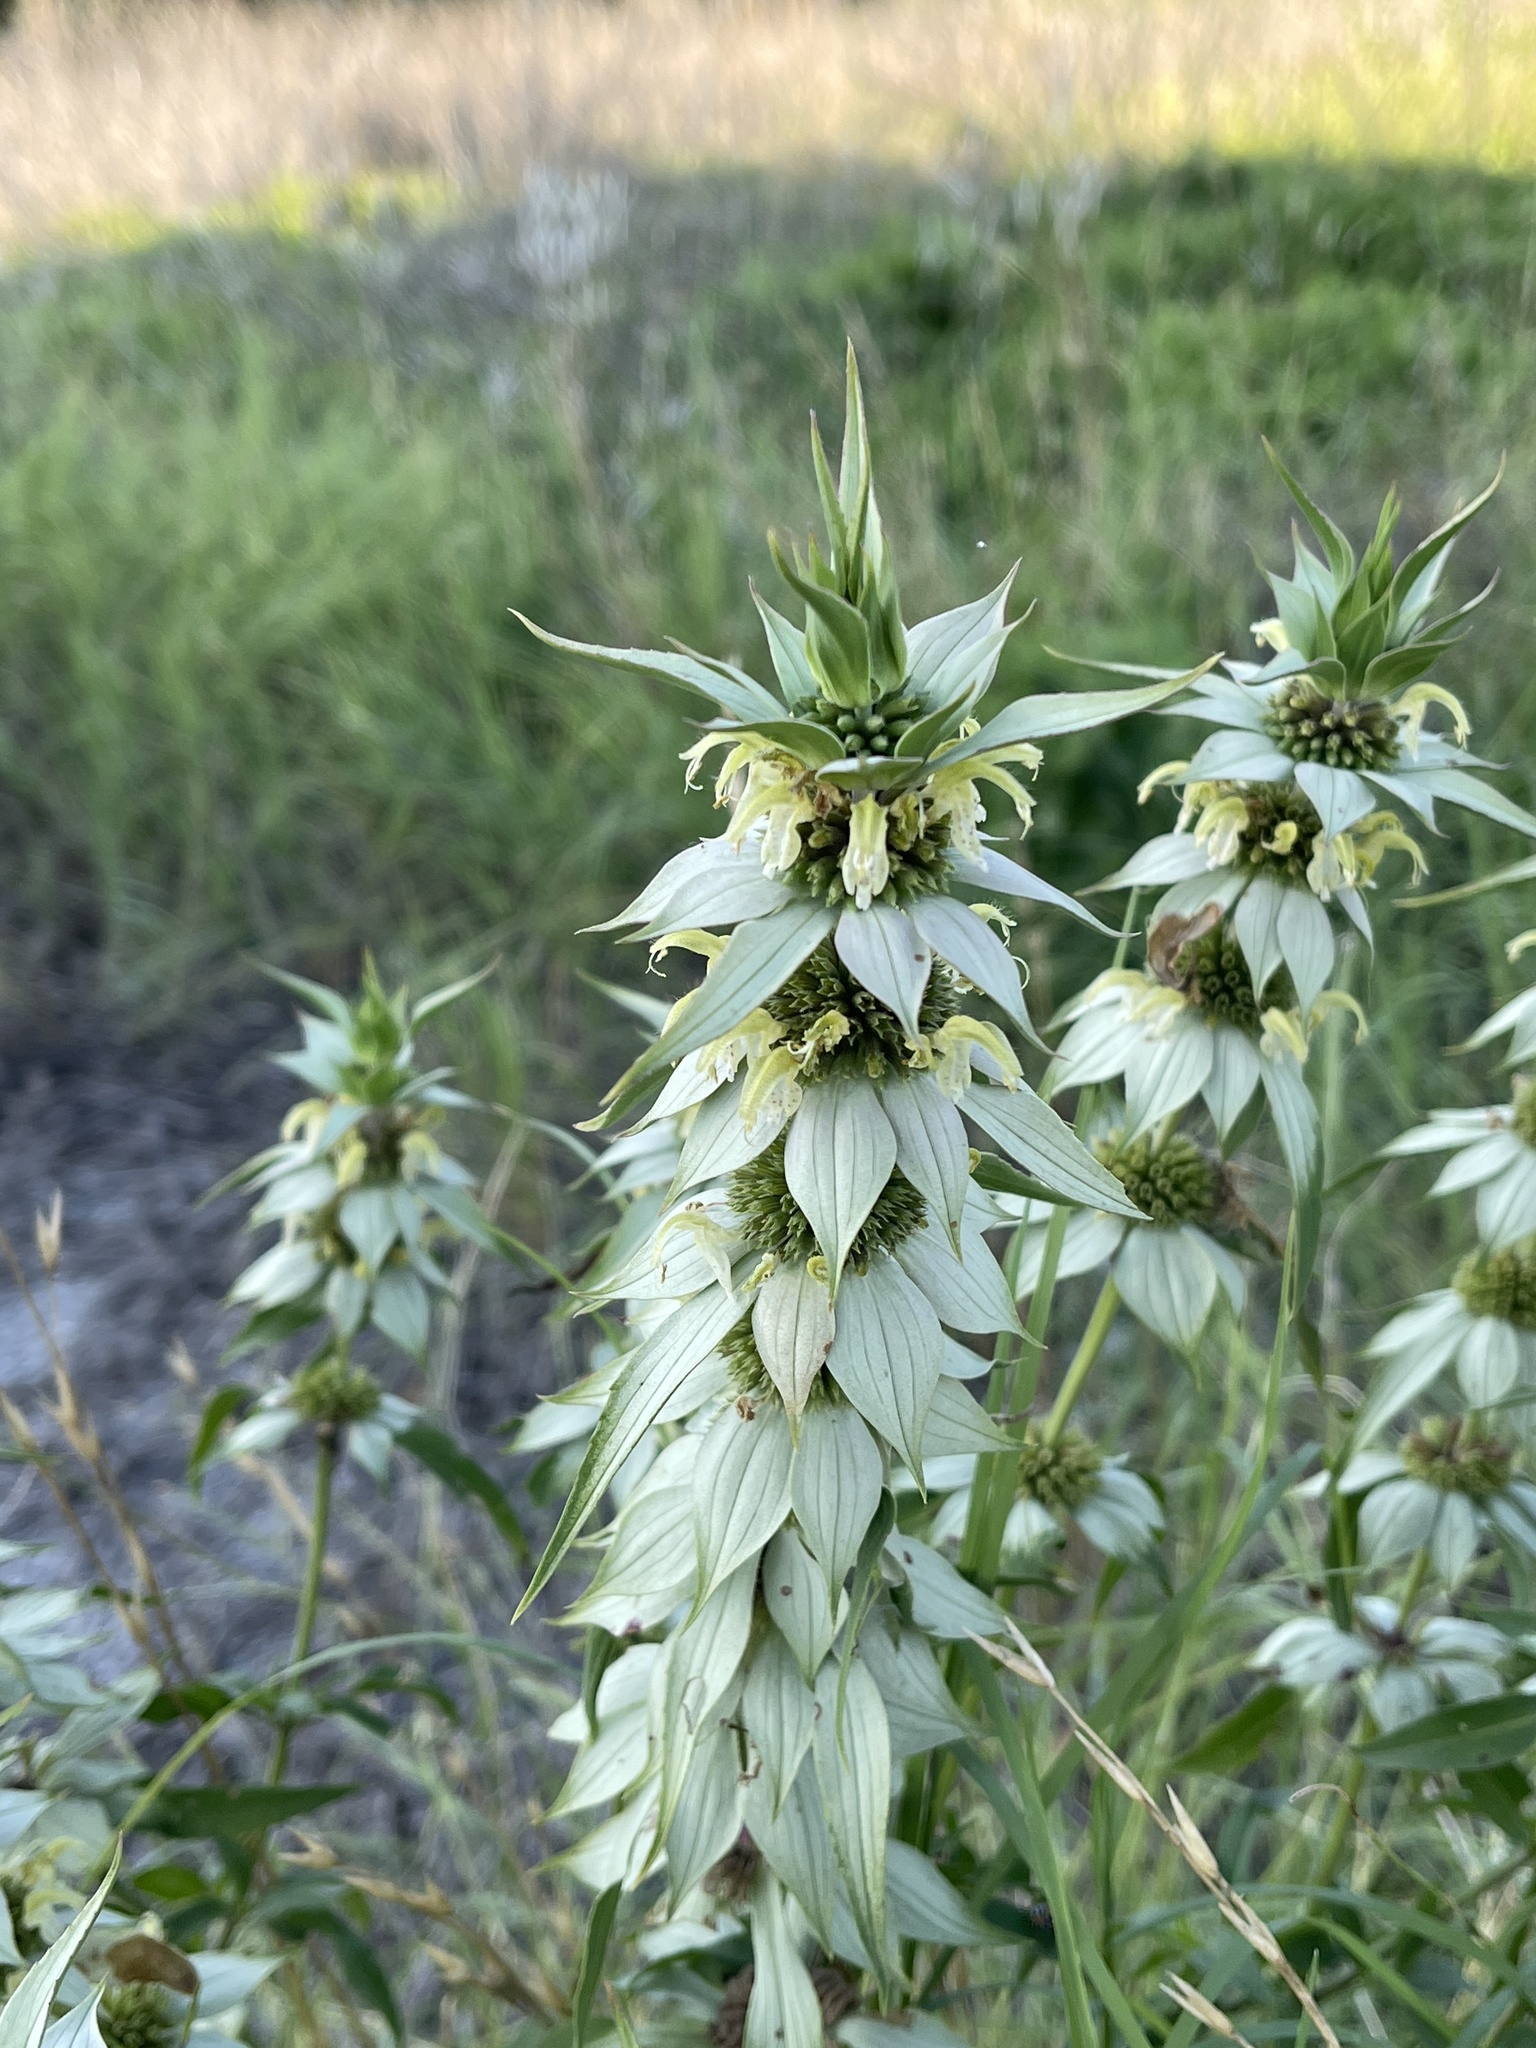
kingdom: Plantae
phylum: Tracheophyta
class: Magnoliopsida
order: Lamiales
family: Lamiaceae
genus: Monarda
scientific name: Monarda punctata
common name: Dotted monarda
